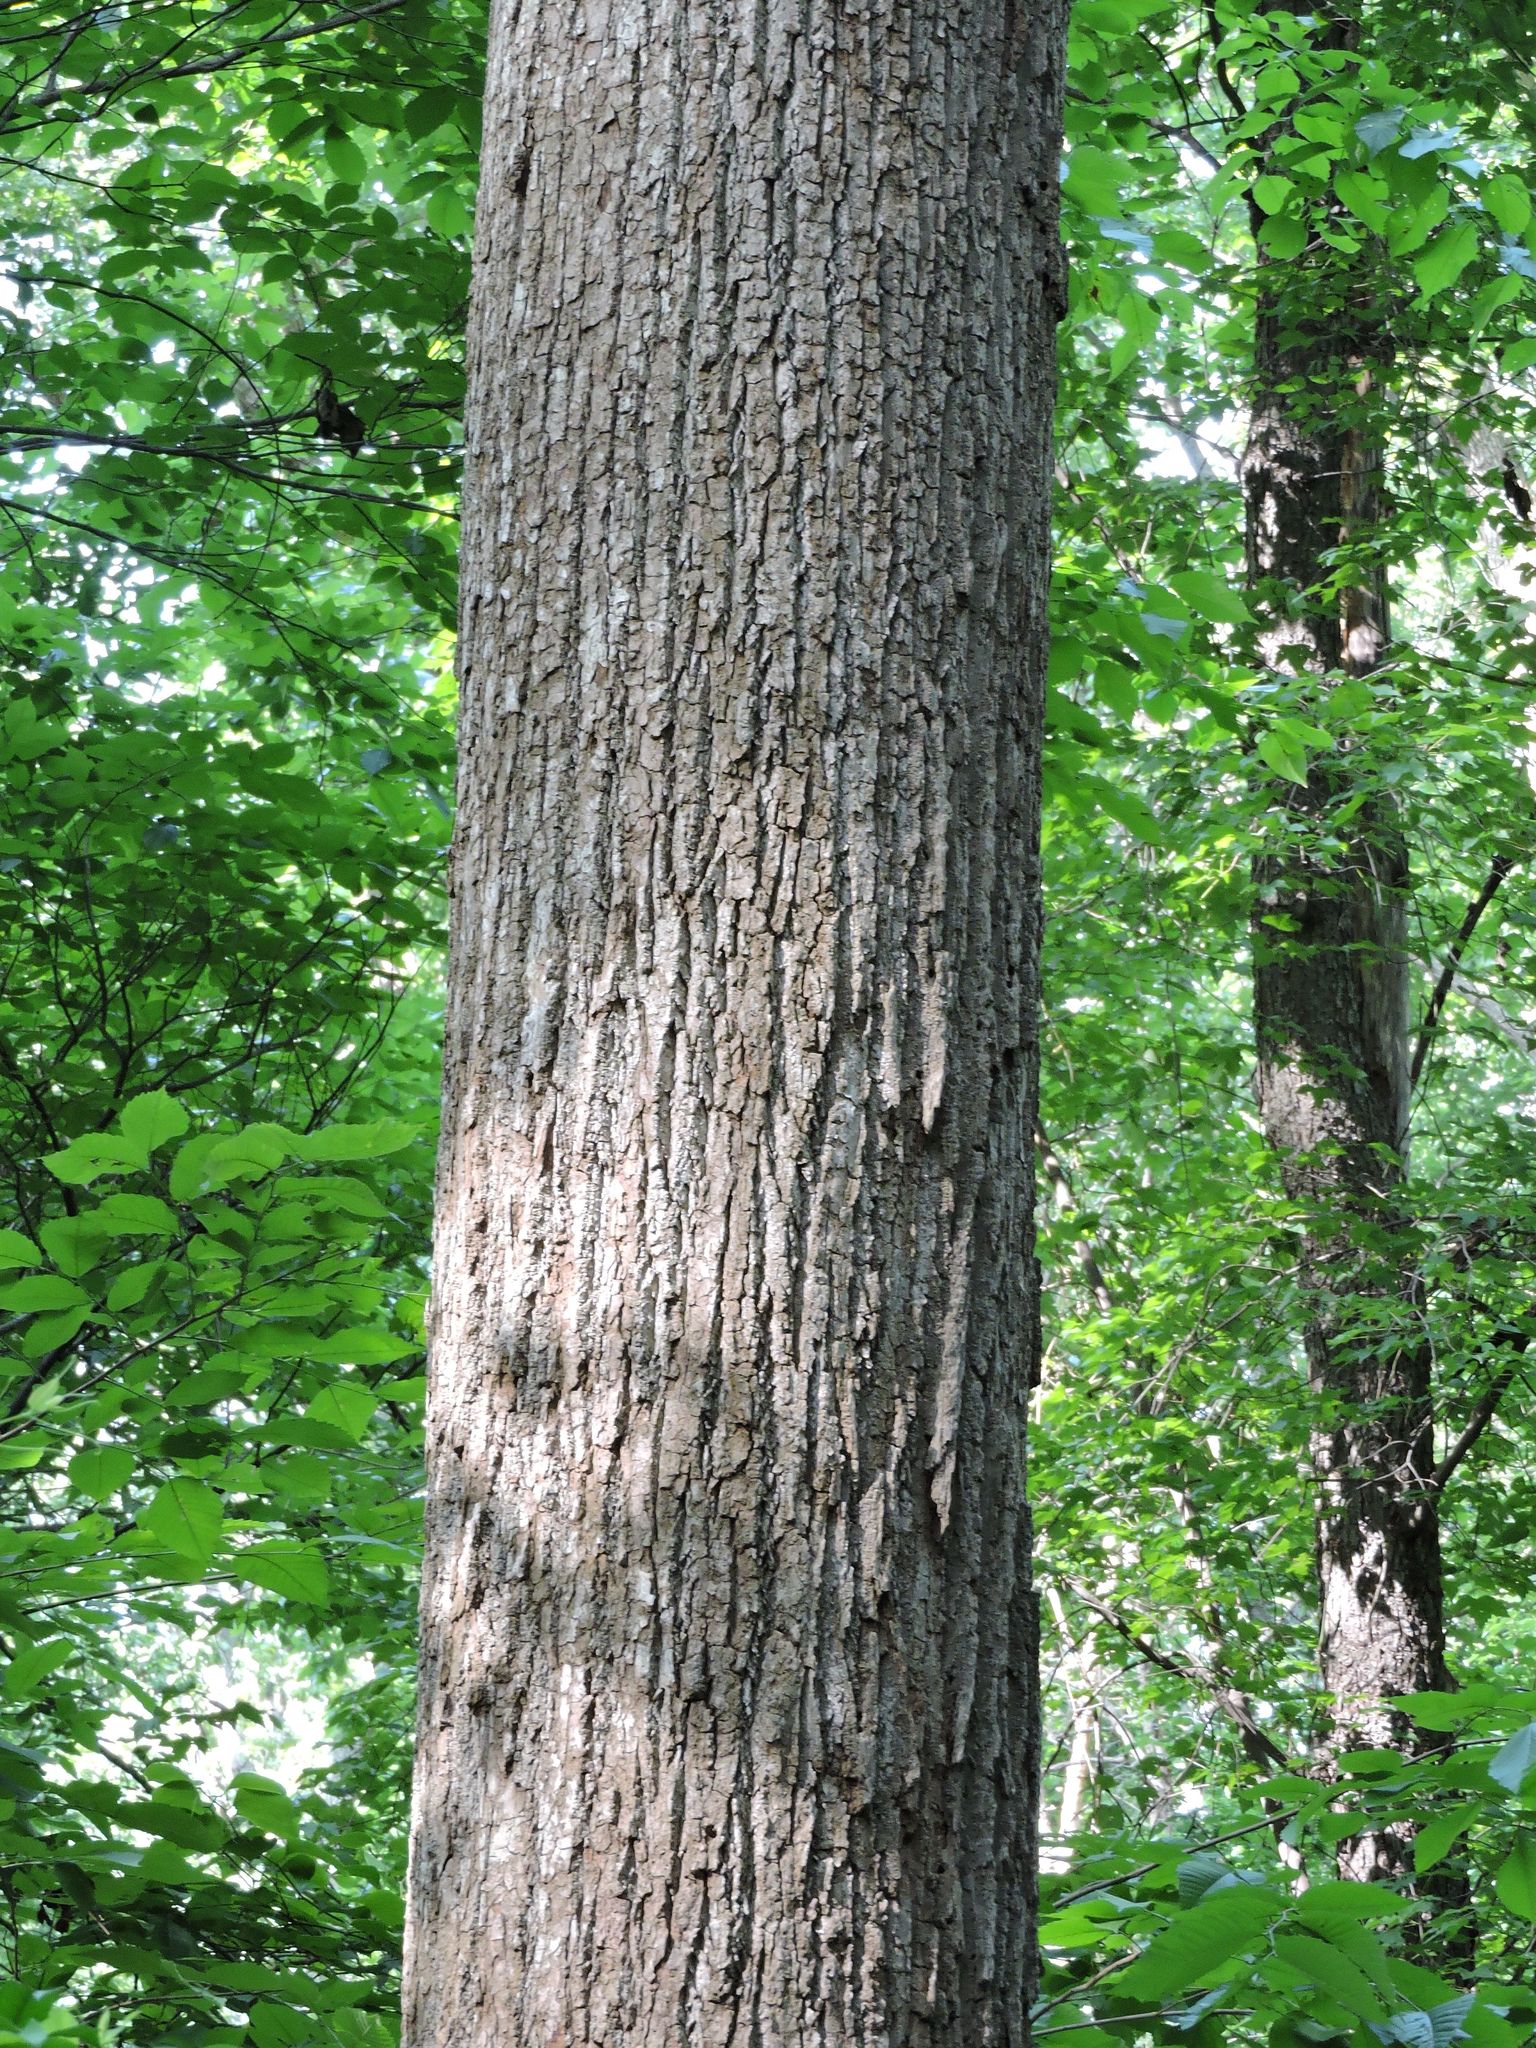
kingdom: Plantae
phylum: Tracheophyta
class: Magnoliopsida
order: Magnoliales
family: Magnoliaceae
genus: Liriodendron
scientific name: Liriodendron tulipifera
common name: Tulip tree
